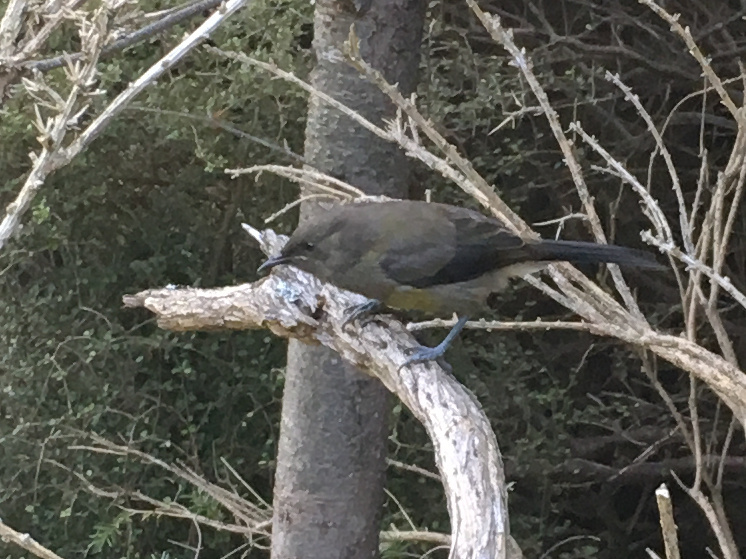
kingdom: Animalia
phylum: Chordata
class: Aves
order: Passeriformes
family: Meliphagidae
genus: Anthornis
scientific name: Anthornis melanura
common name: New zealand bellbird
